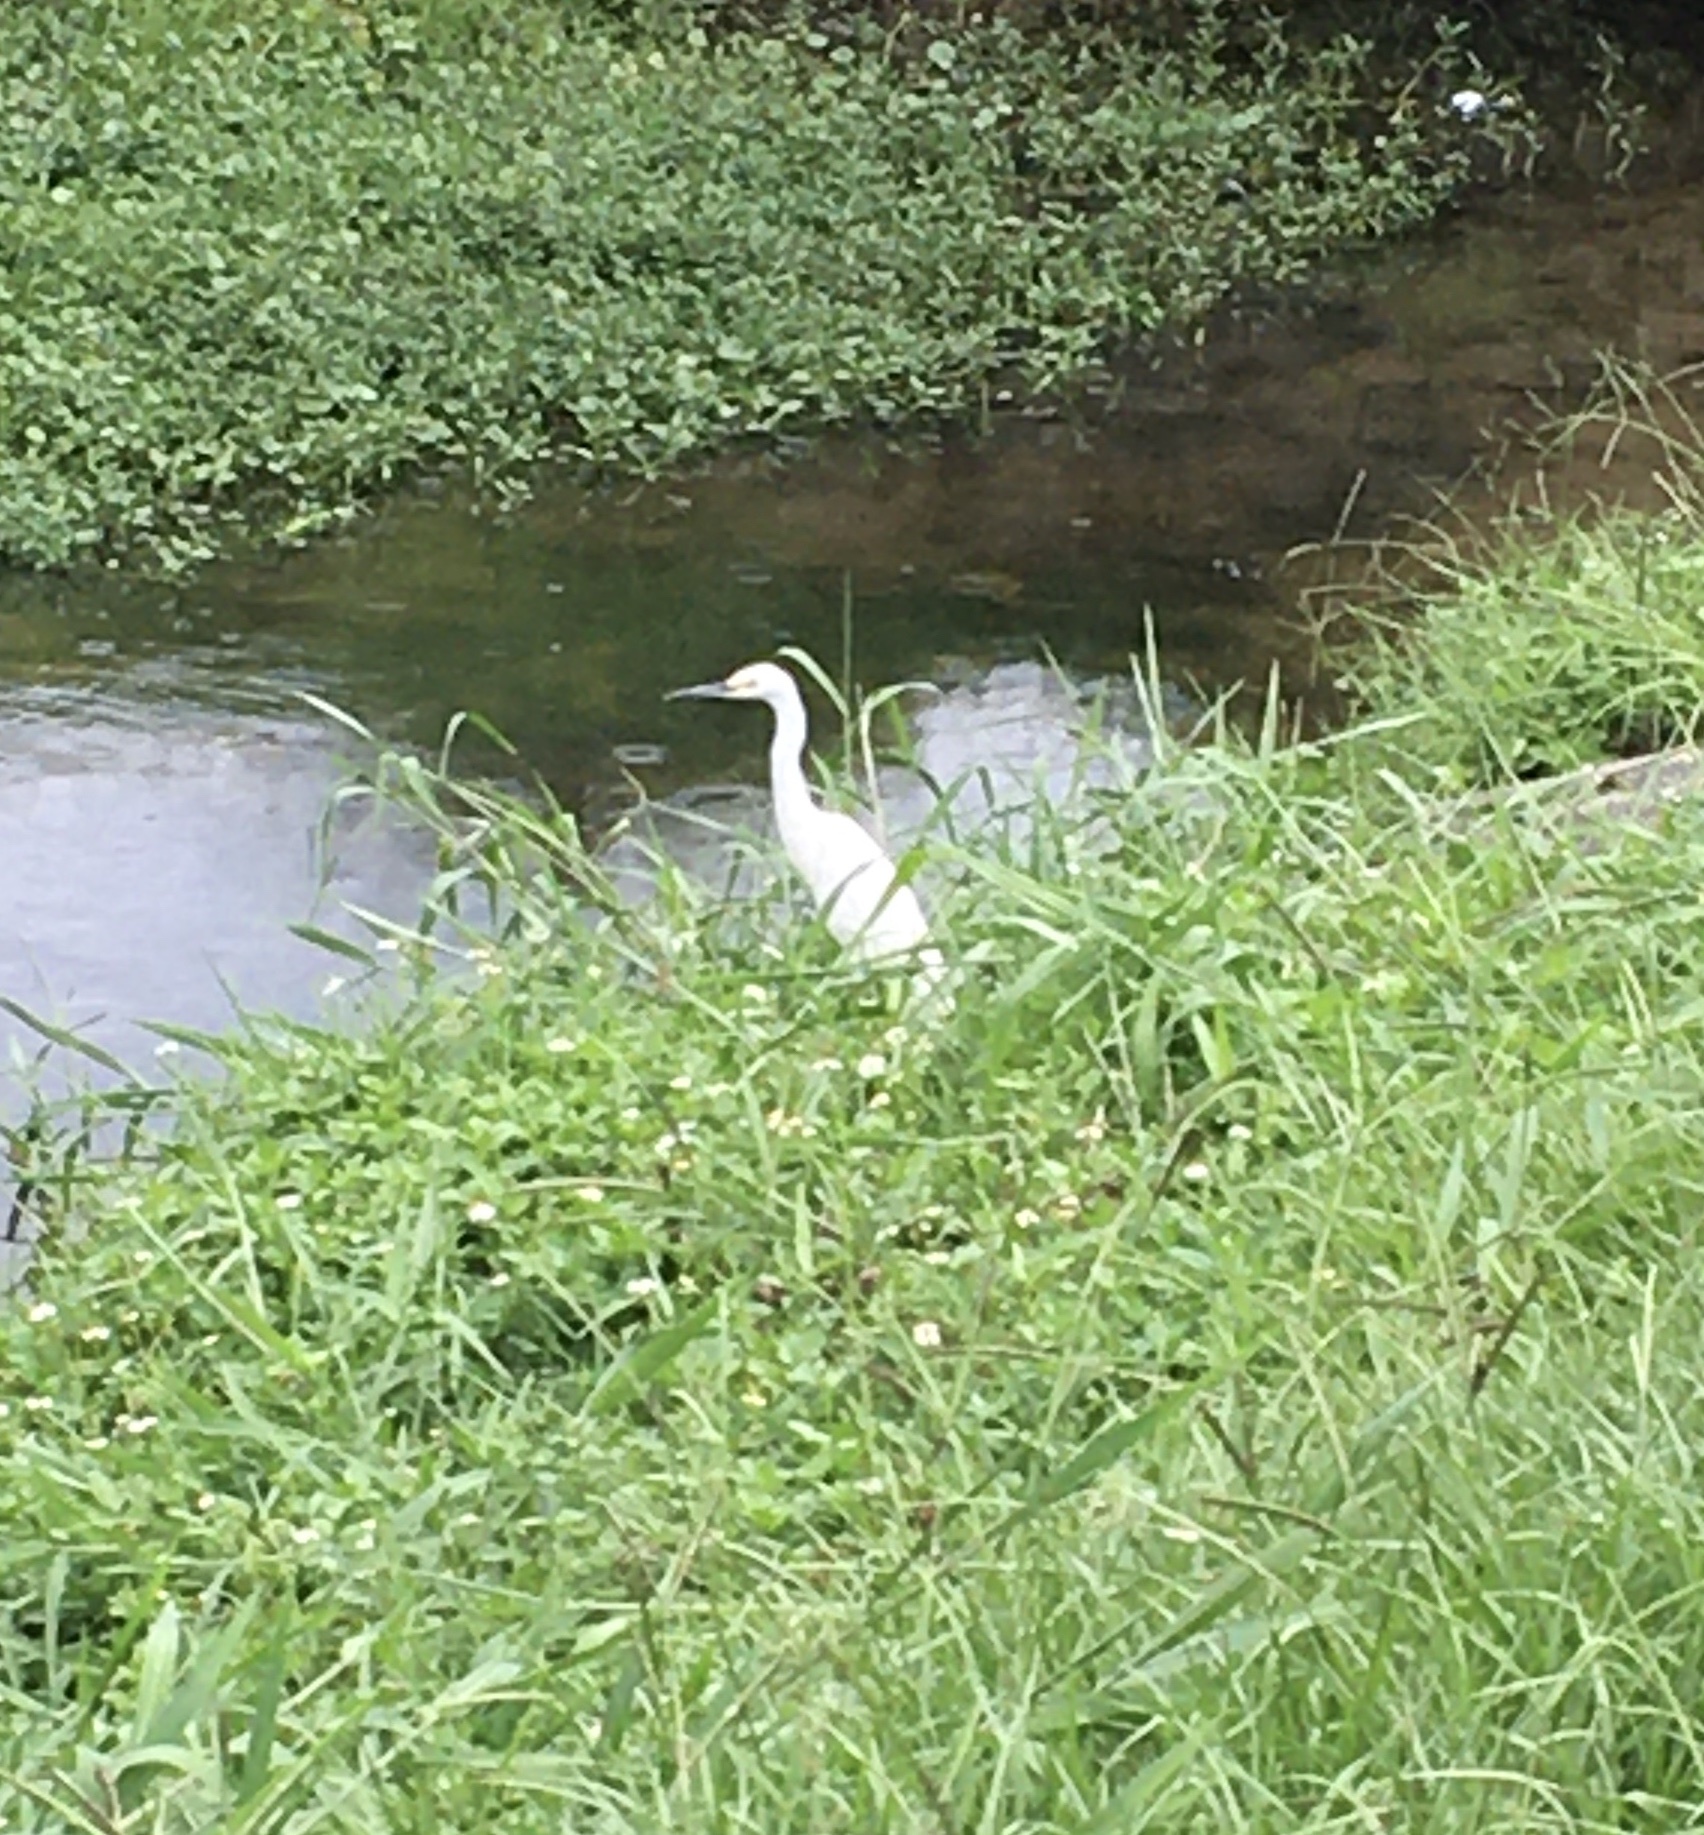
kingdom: Animalia
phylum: Chordata
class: Aves
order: Pelecaniformes
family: Ardeidae
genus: Egretta
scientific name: Egretta thula
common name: Snowy egret
